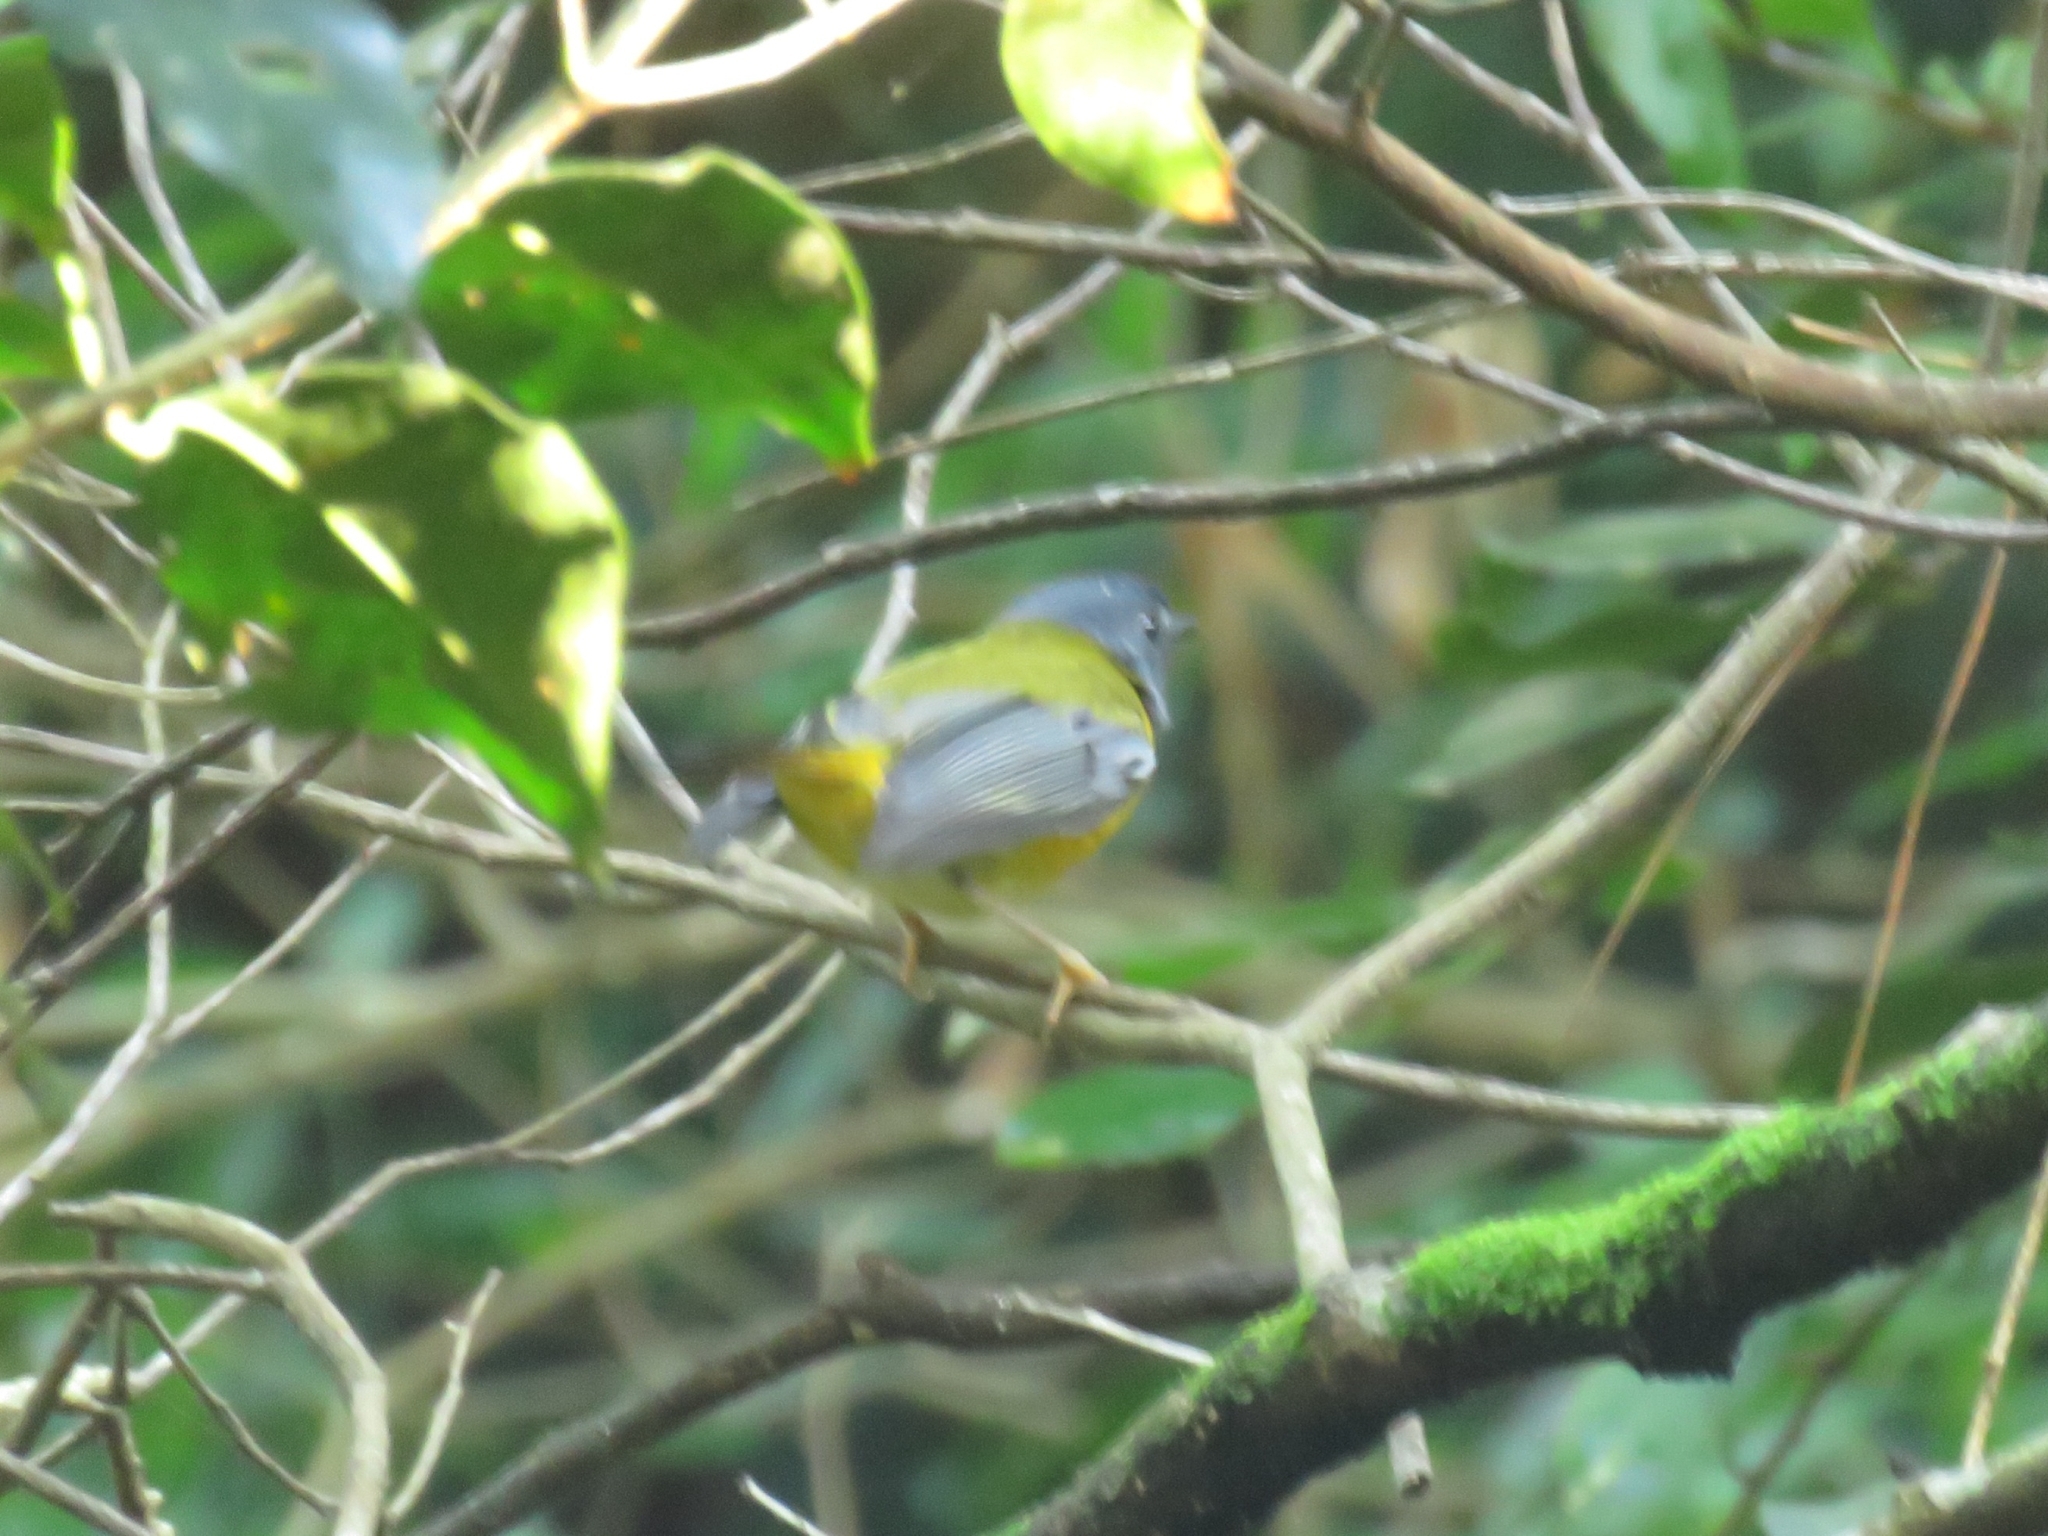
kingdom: Animalia
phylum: Chordata
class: Aves
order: Passeriformes
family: Muscicapidae
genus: Pogonocichla
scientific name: Pogonocichla stellata
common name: White-starred robin
